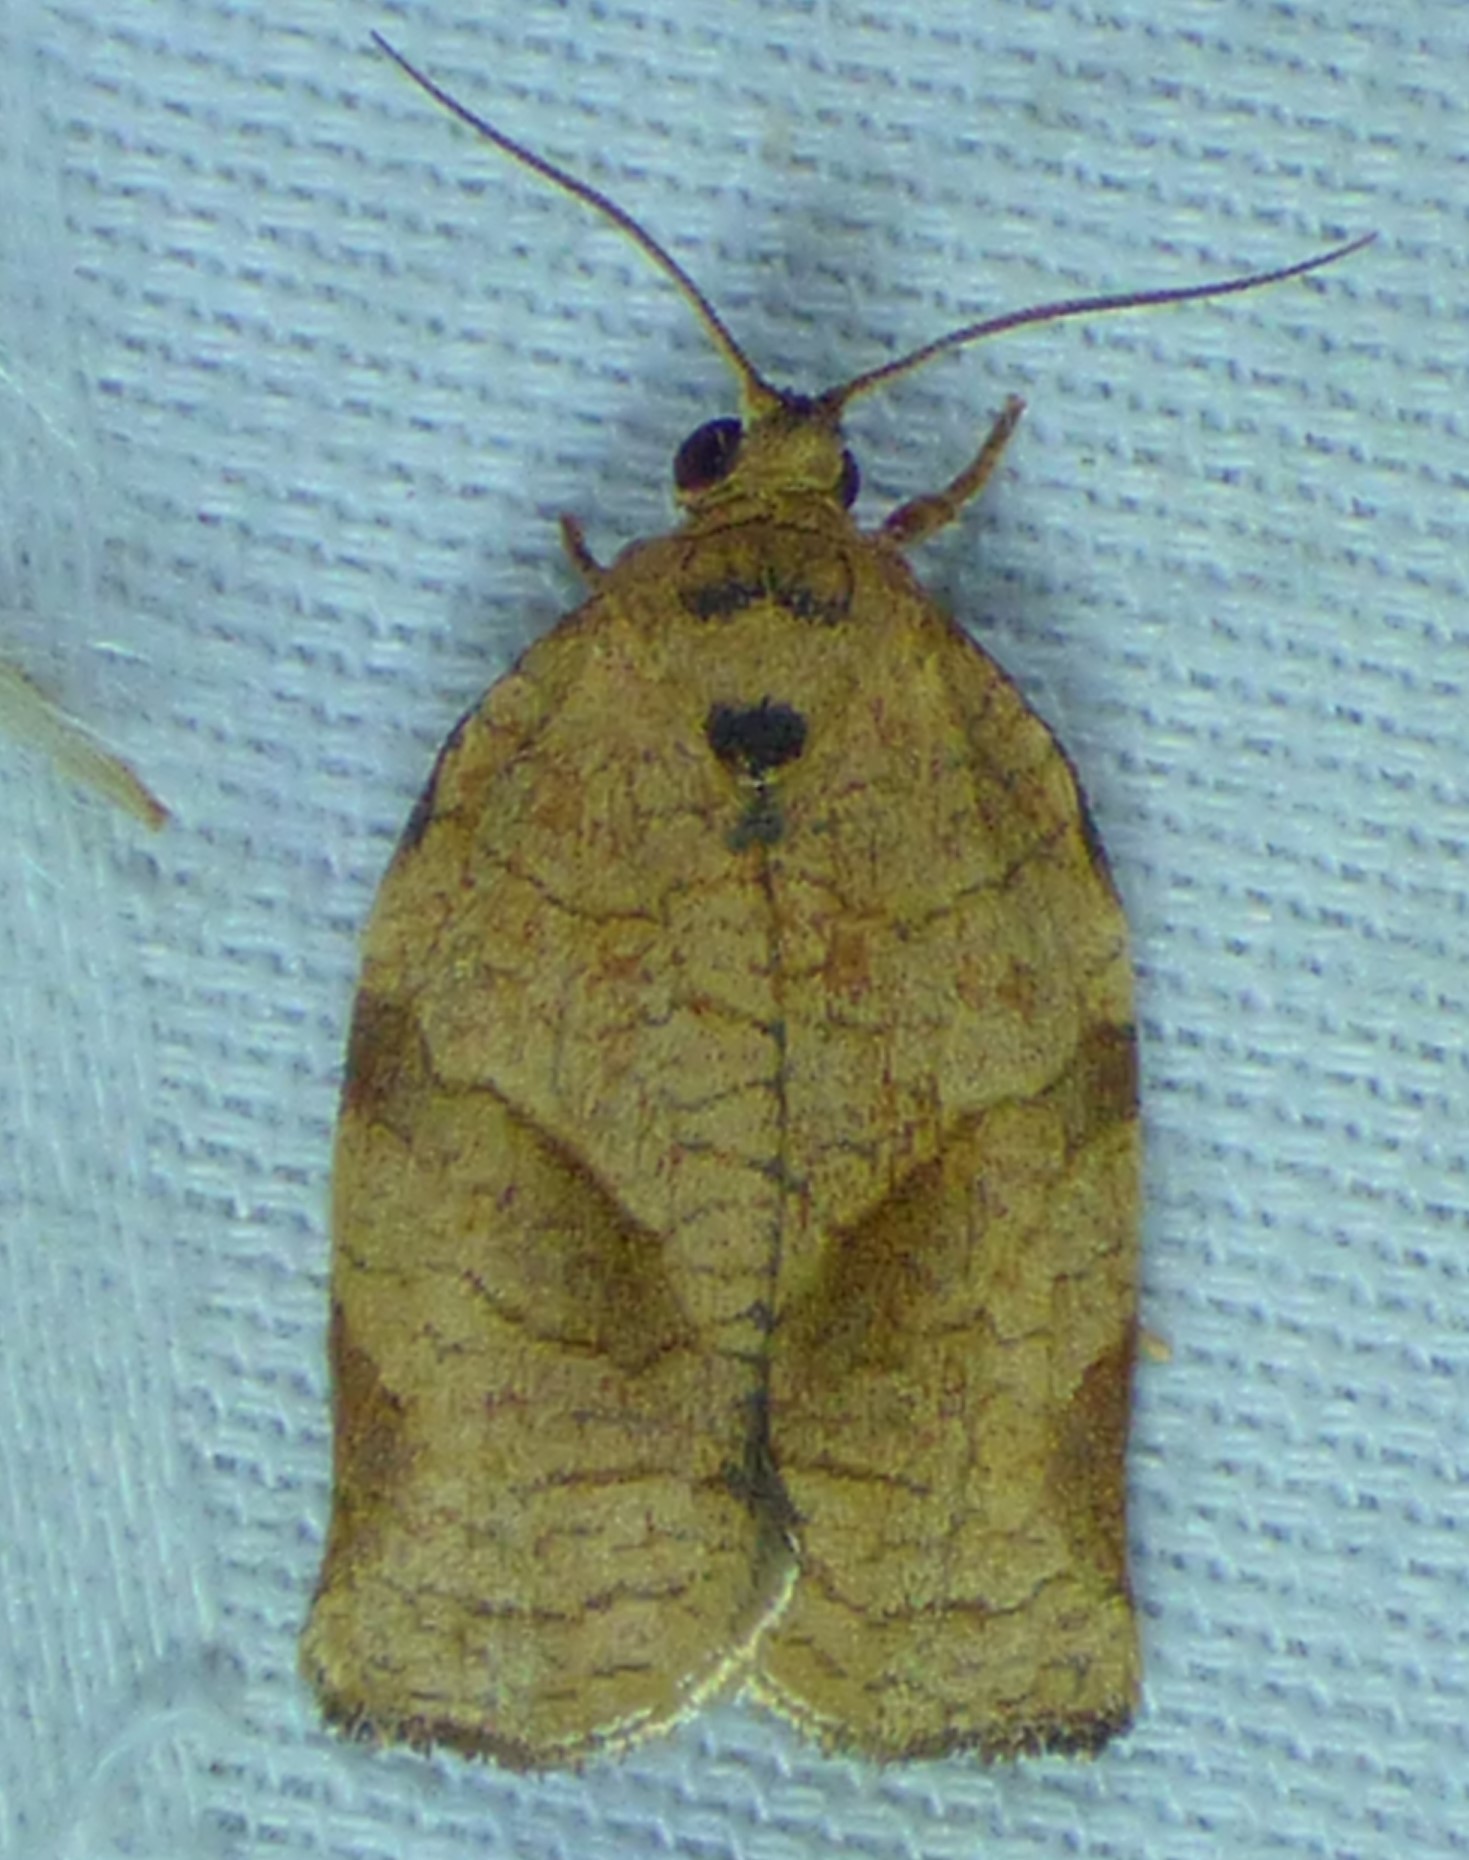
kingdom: Animalia
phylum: Arthropoda
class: Insecta
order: Lepidoptera
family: Tortricidae
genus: Choristoneura
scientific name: Choristoneura rosaceana
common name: Oblique-banded leafroller moth
